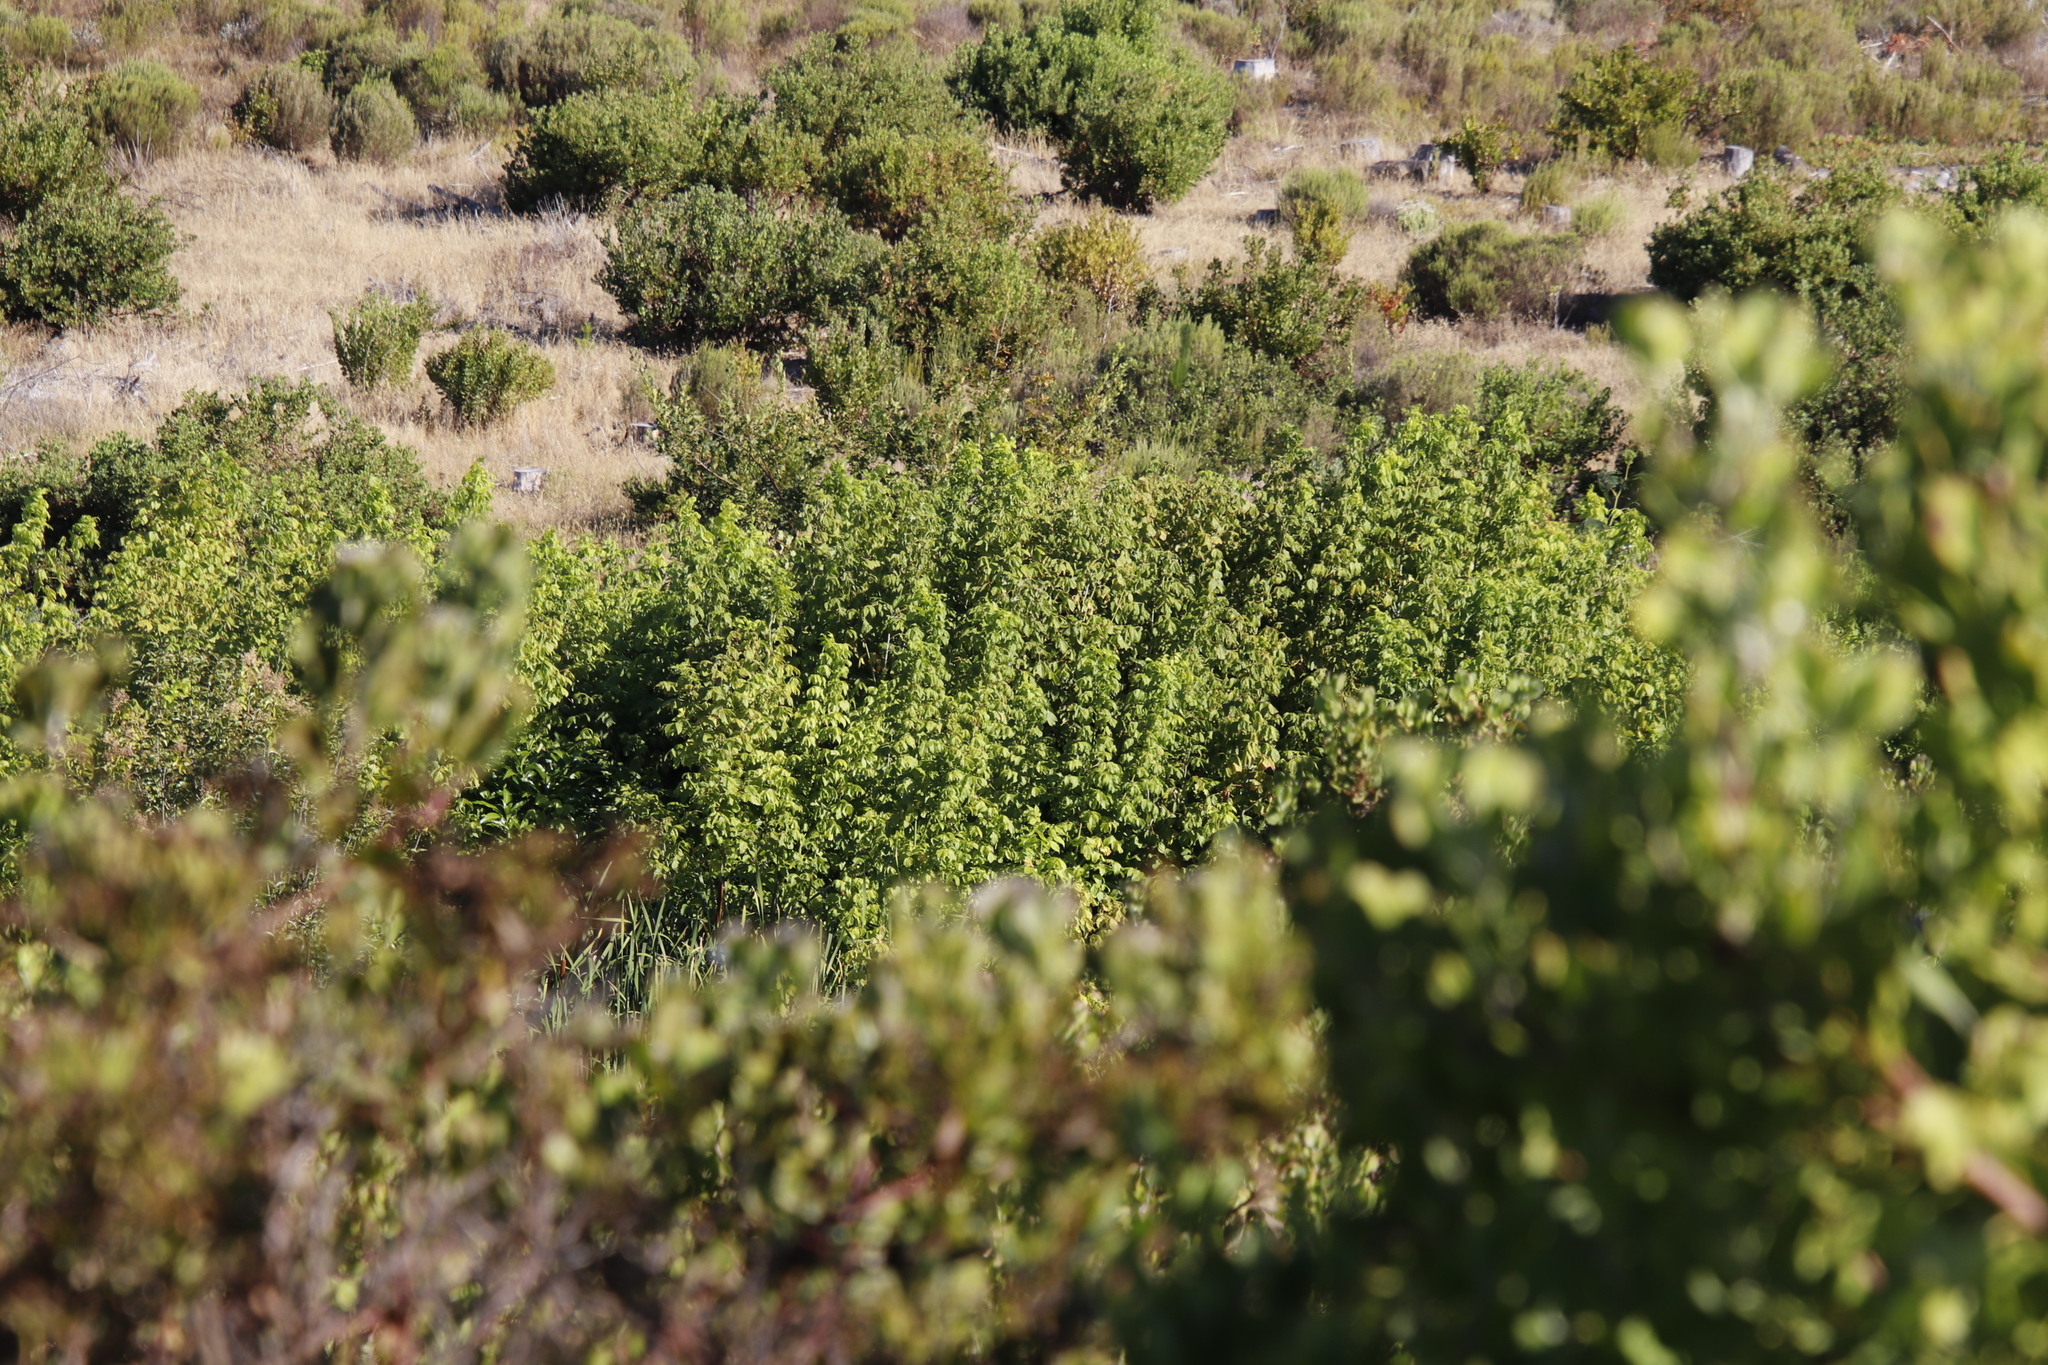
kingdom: Plantae
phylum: Tracheophyta
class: Magnoliopsida
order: Sapindales
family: Sapindaceae
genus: Acer
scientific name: Acer negundo
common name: Ashleaf maple
